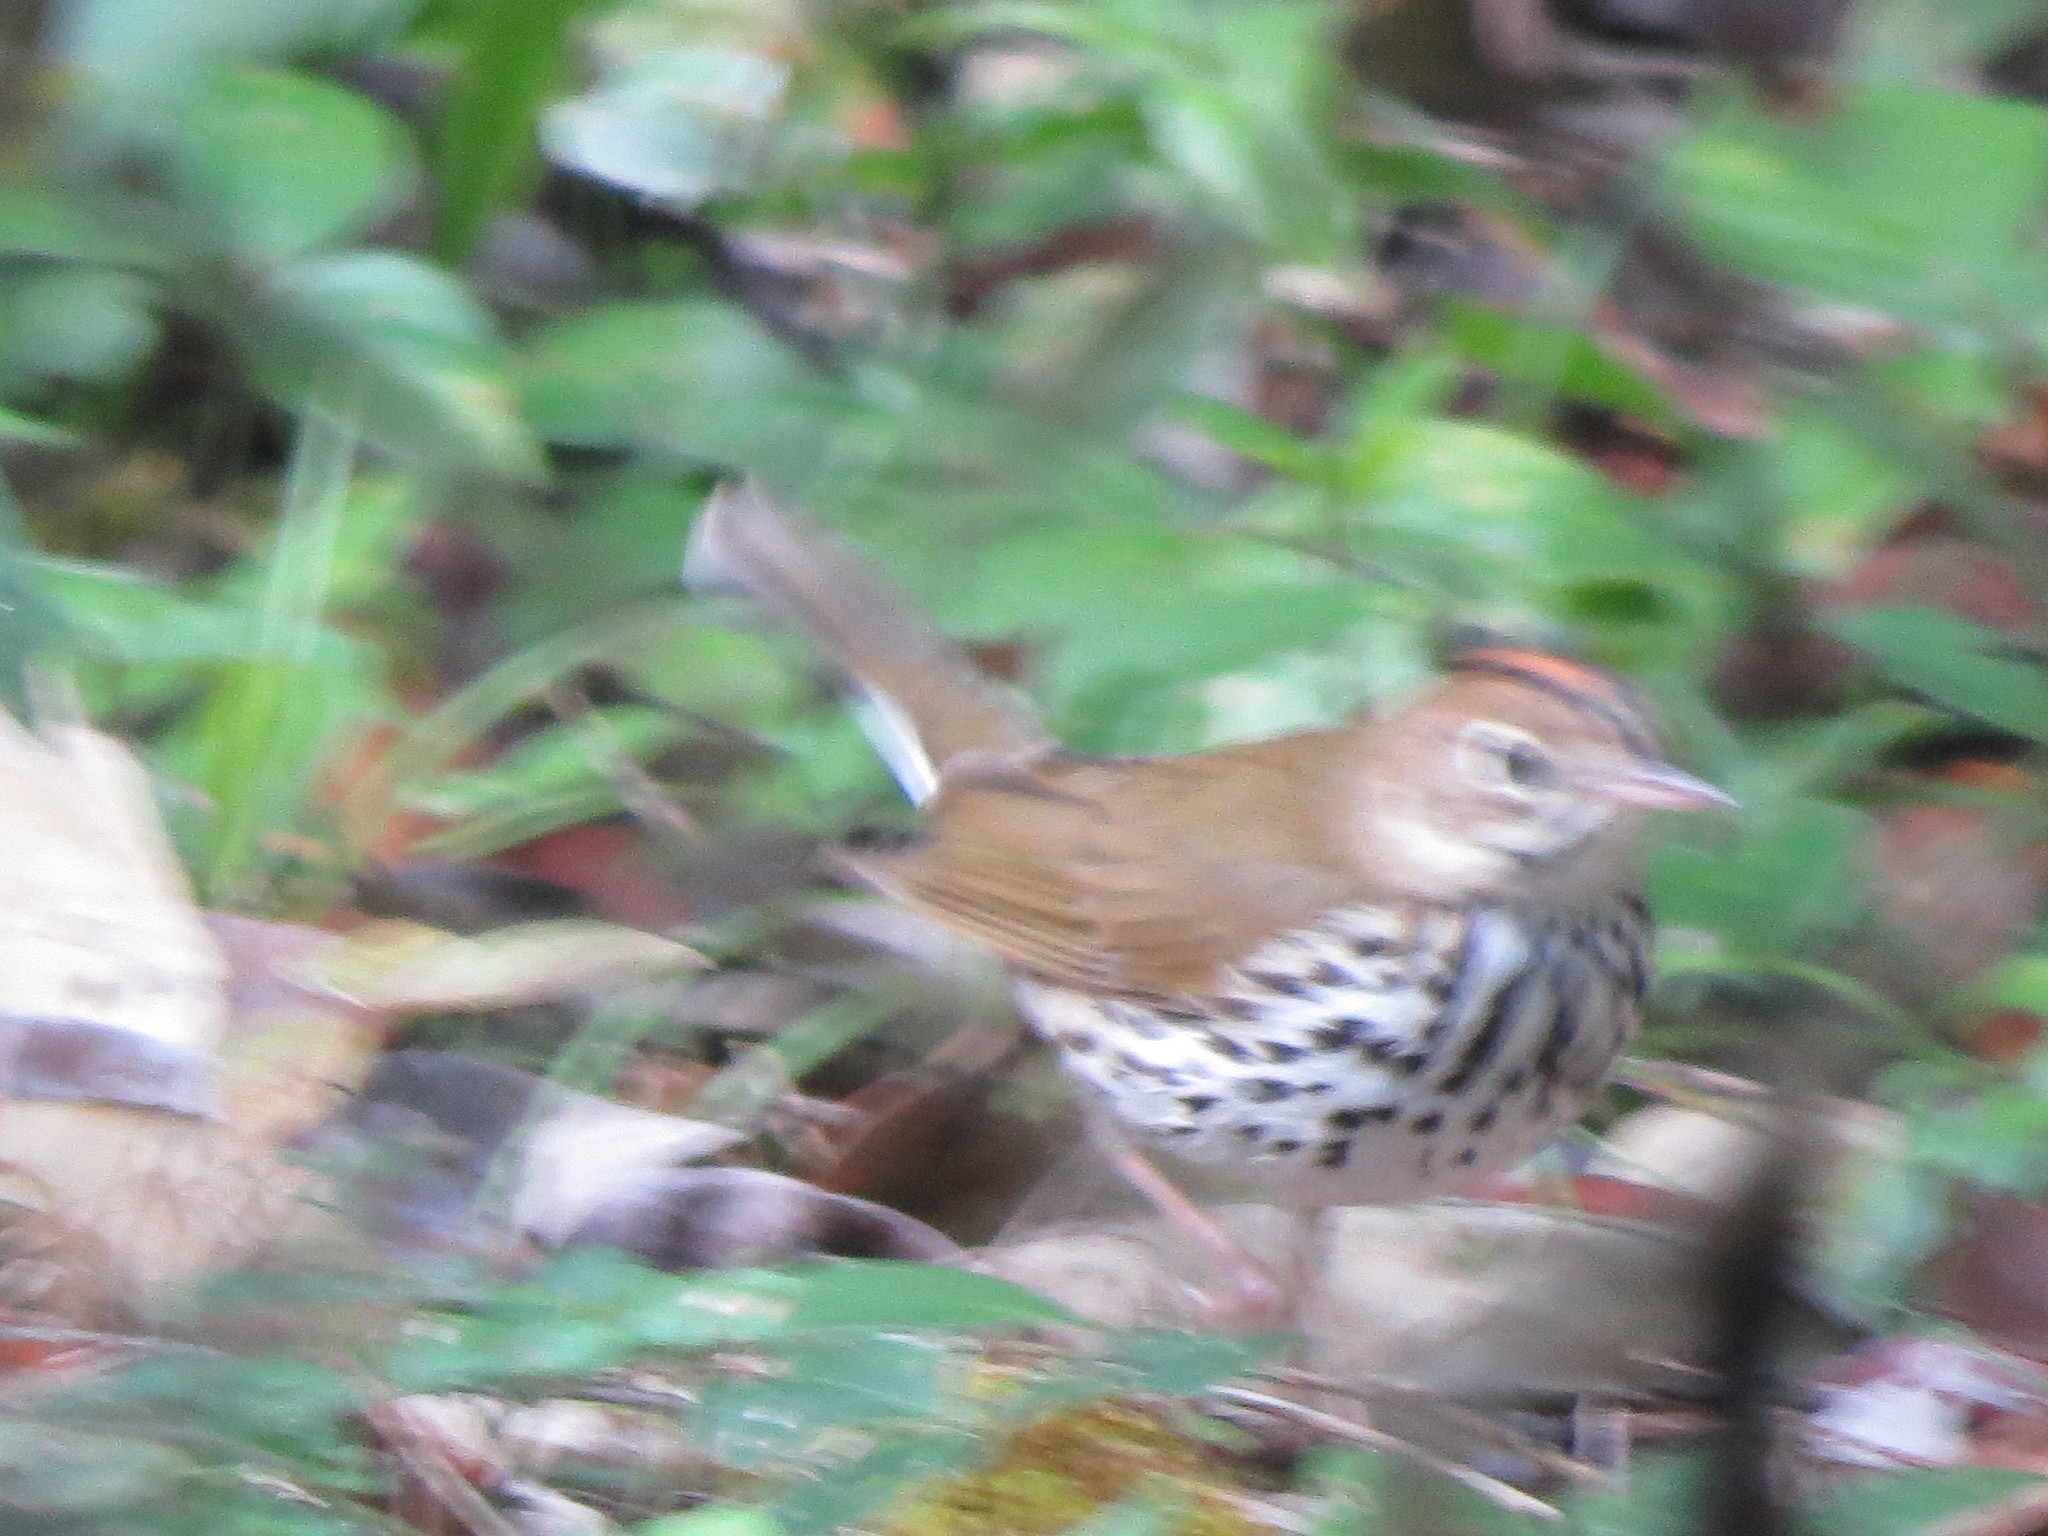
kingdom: Animalia
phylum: Chordata
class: Aves
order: Passeriformes
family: Parulidae
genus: Seiurus
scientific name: Seiurus aurocapilla
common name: Ovenbird
